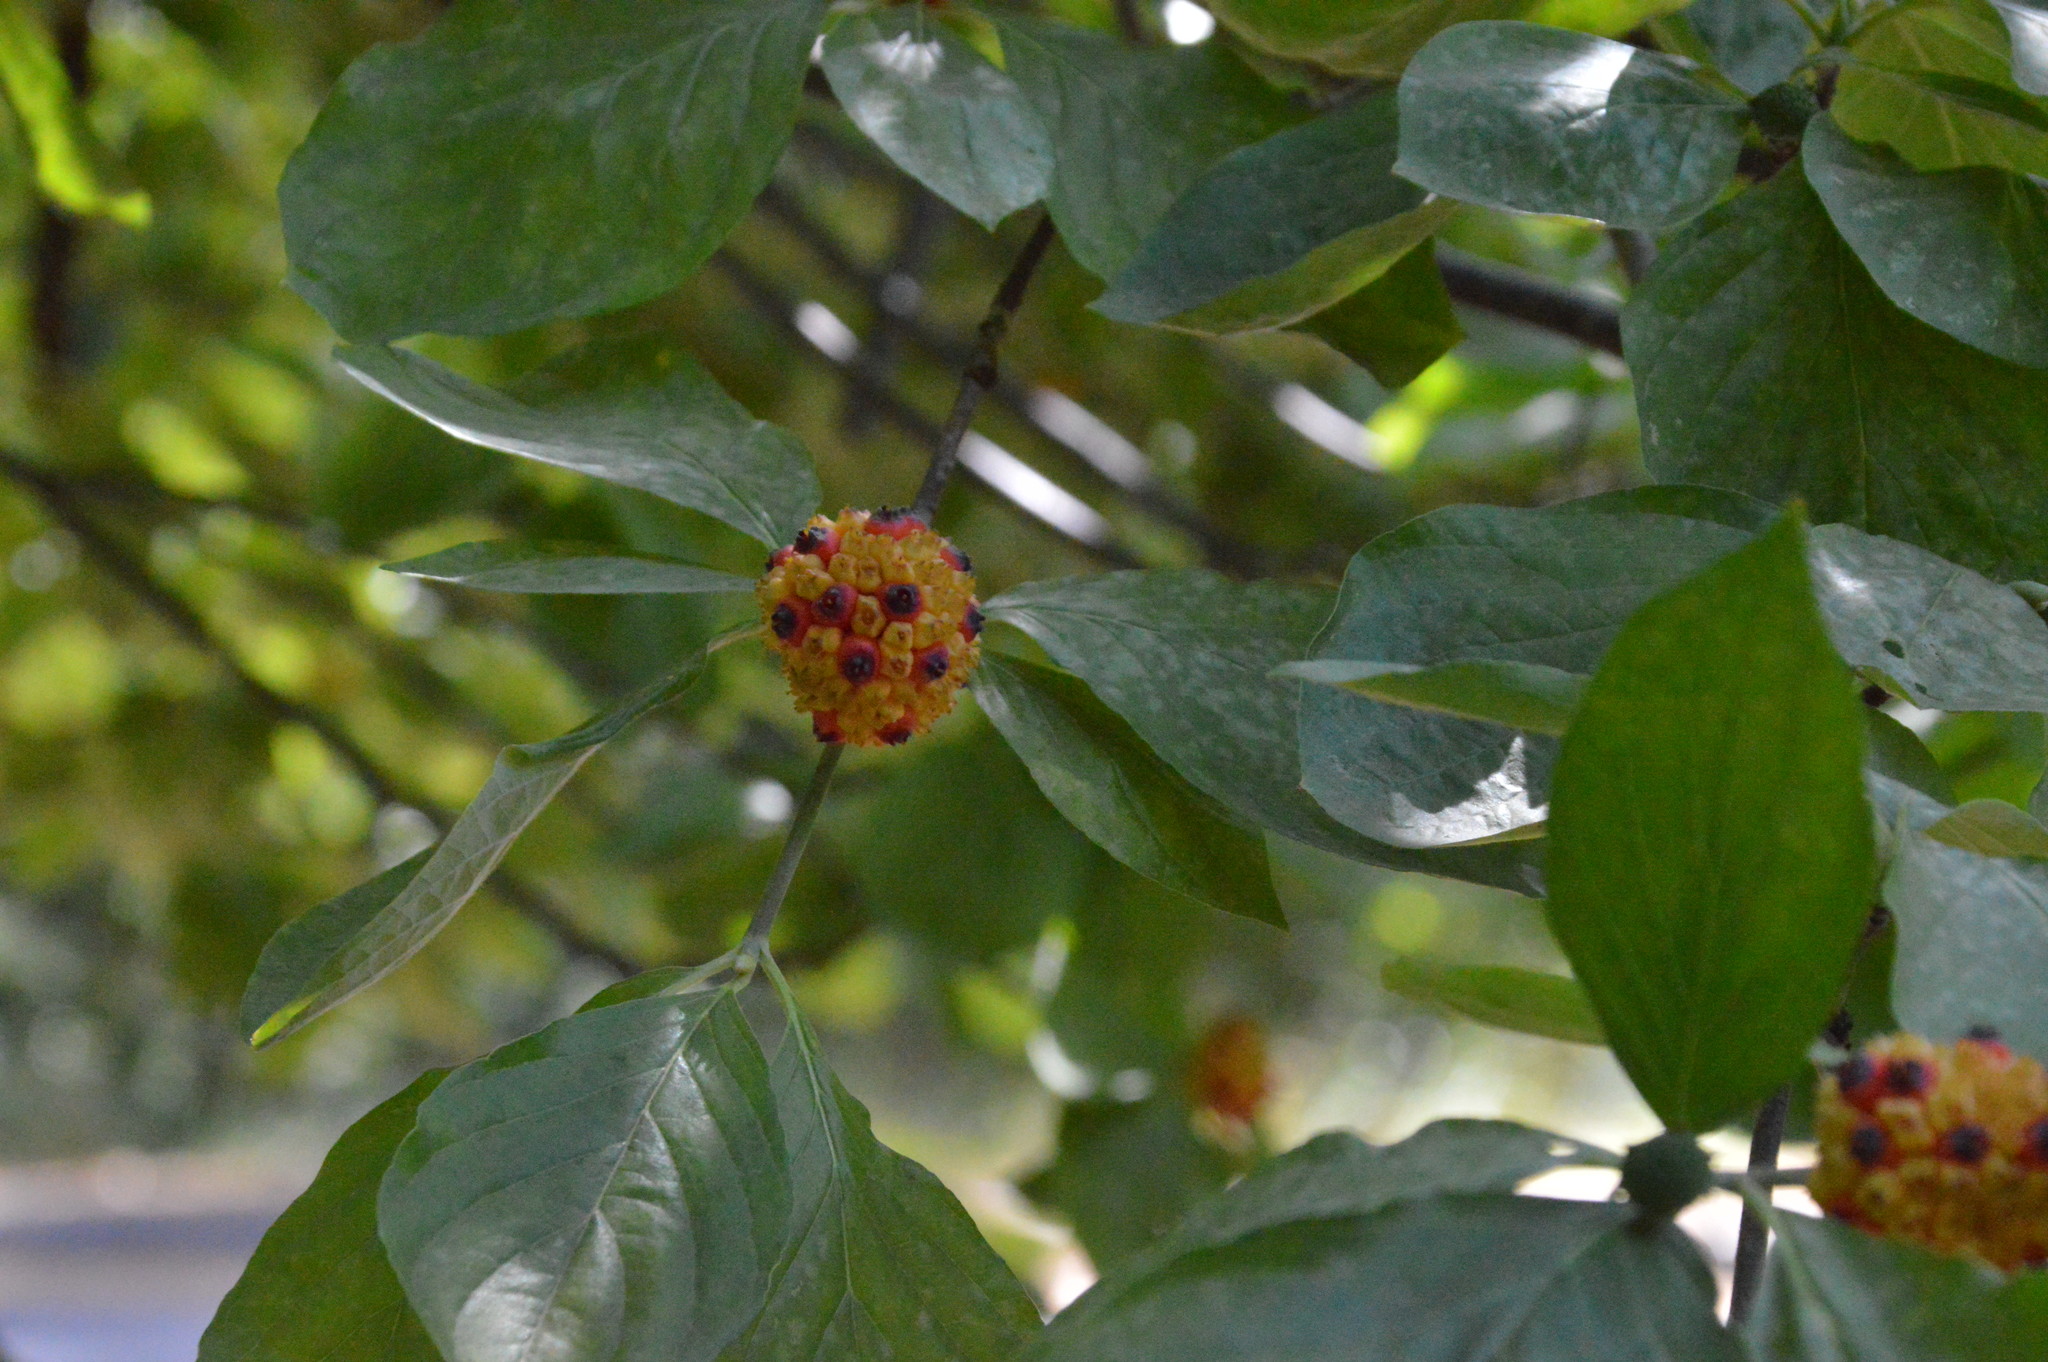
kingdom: Plantae
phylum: Tracheophyta
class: Magnoliopsida
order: Cornales
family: Cornaceae
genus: Cornus
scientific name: Cornus nuttallii
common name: Pacific dogwood
